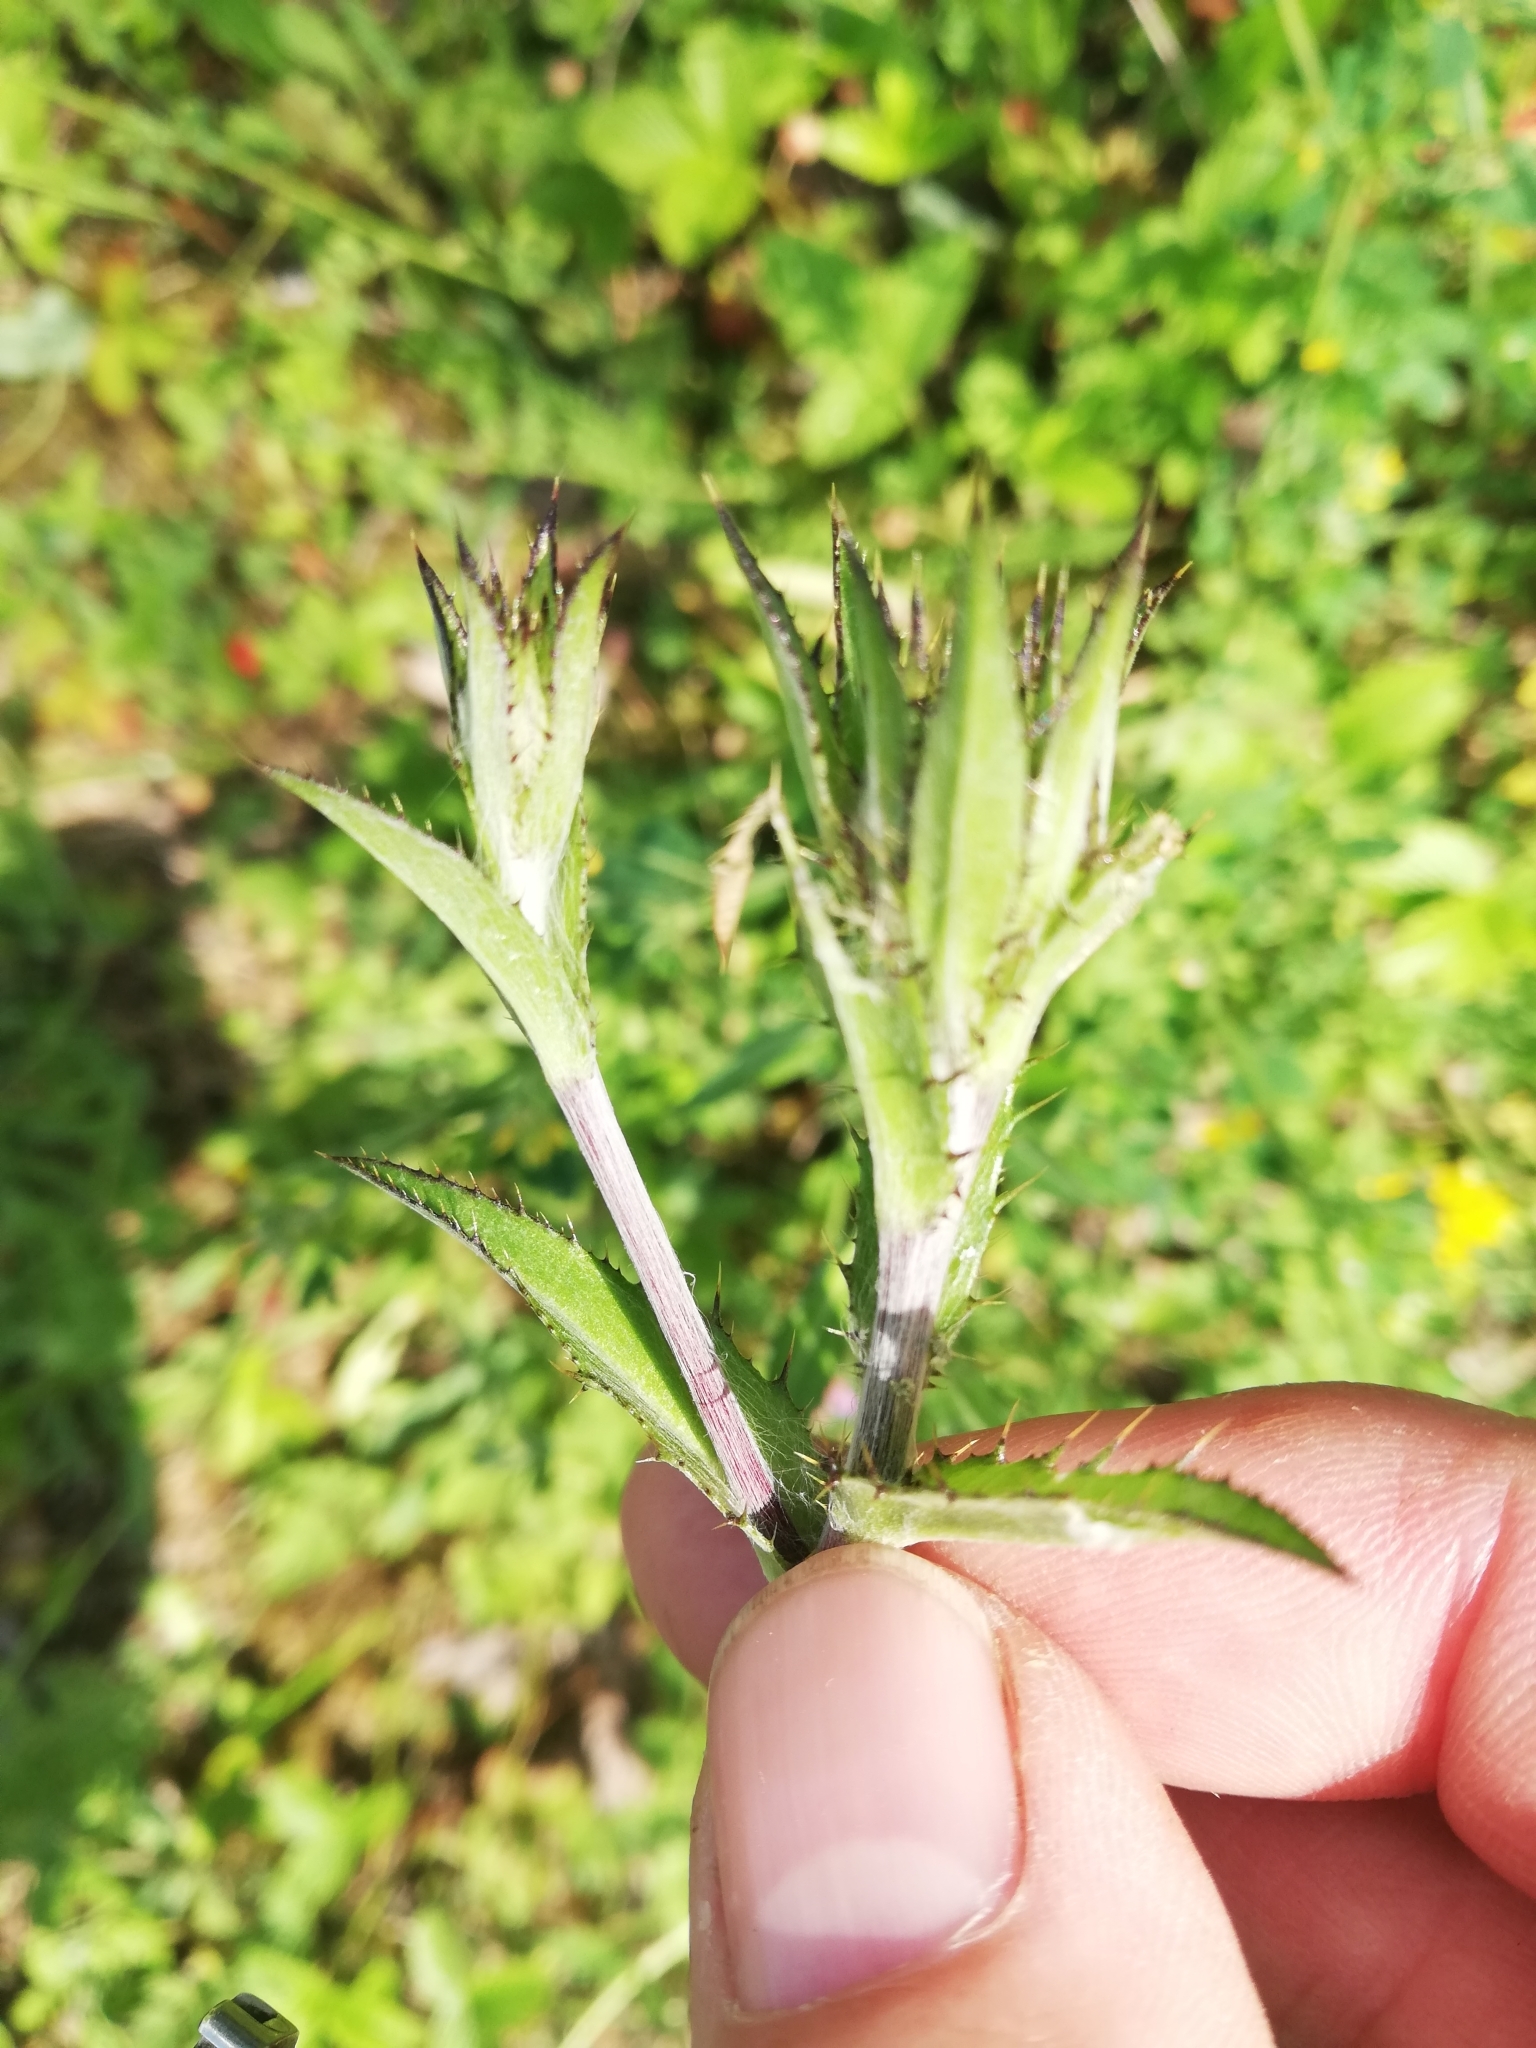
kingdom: Plantae
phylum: Tracheophyta
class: Magnoliopsida
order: Asterales
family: Asteraceae
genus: Carlina
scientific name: Carlina biebersteinii
